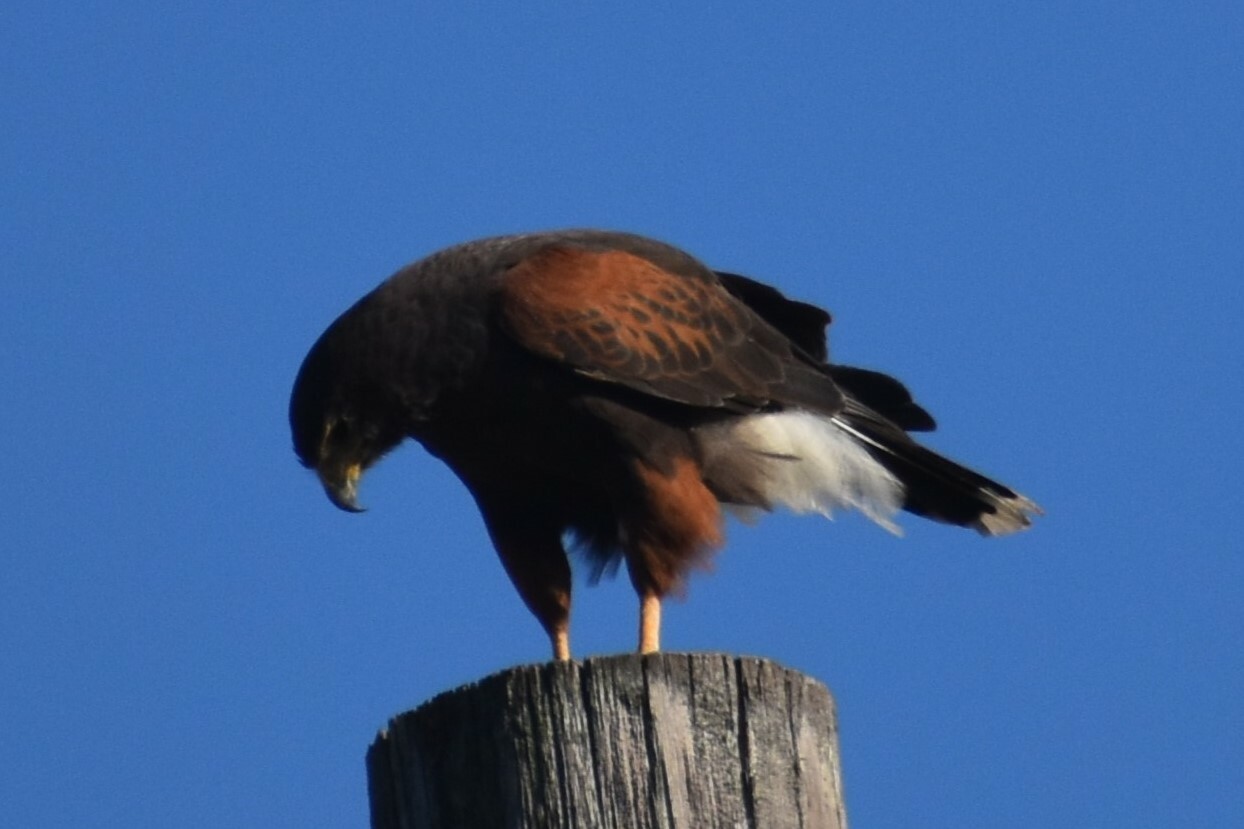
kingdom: Animalia
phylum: Chordata
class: Aves
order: Accipitriformes
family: Accipitridae
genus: Parabuteo
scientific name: Parabuteo unicinctus
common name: Harris's hawk
